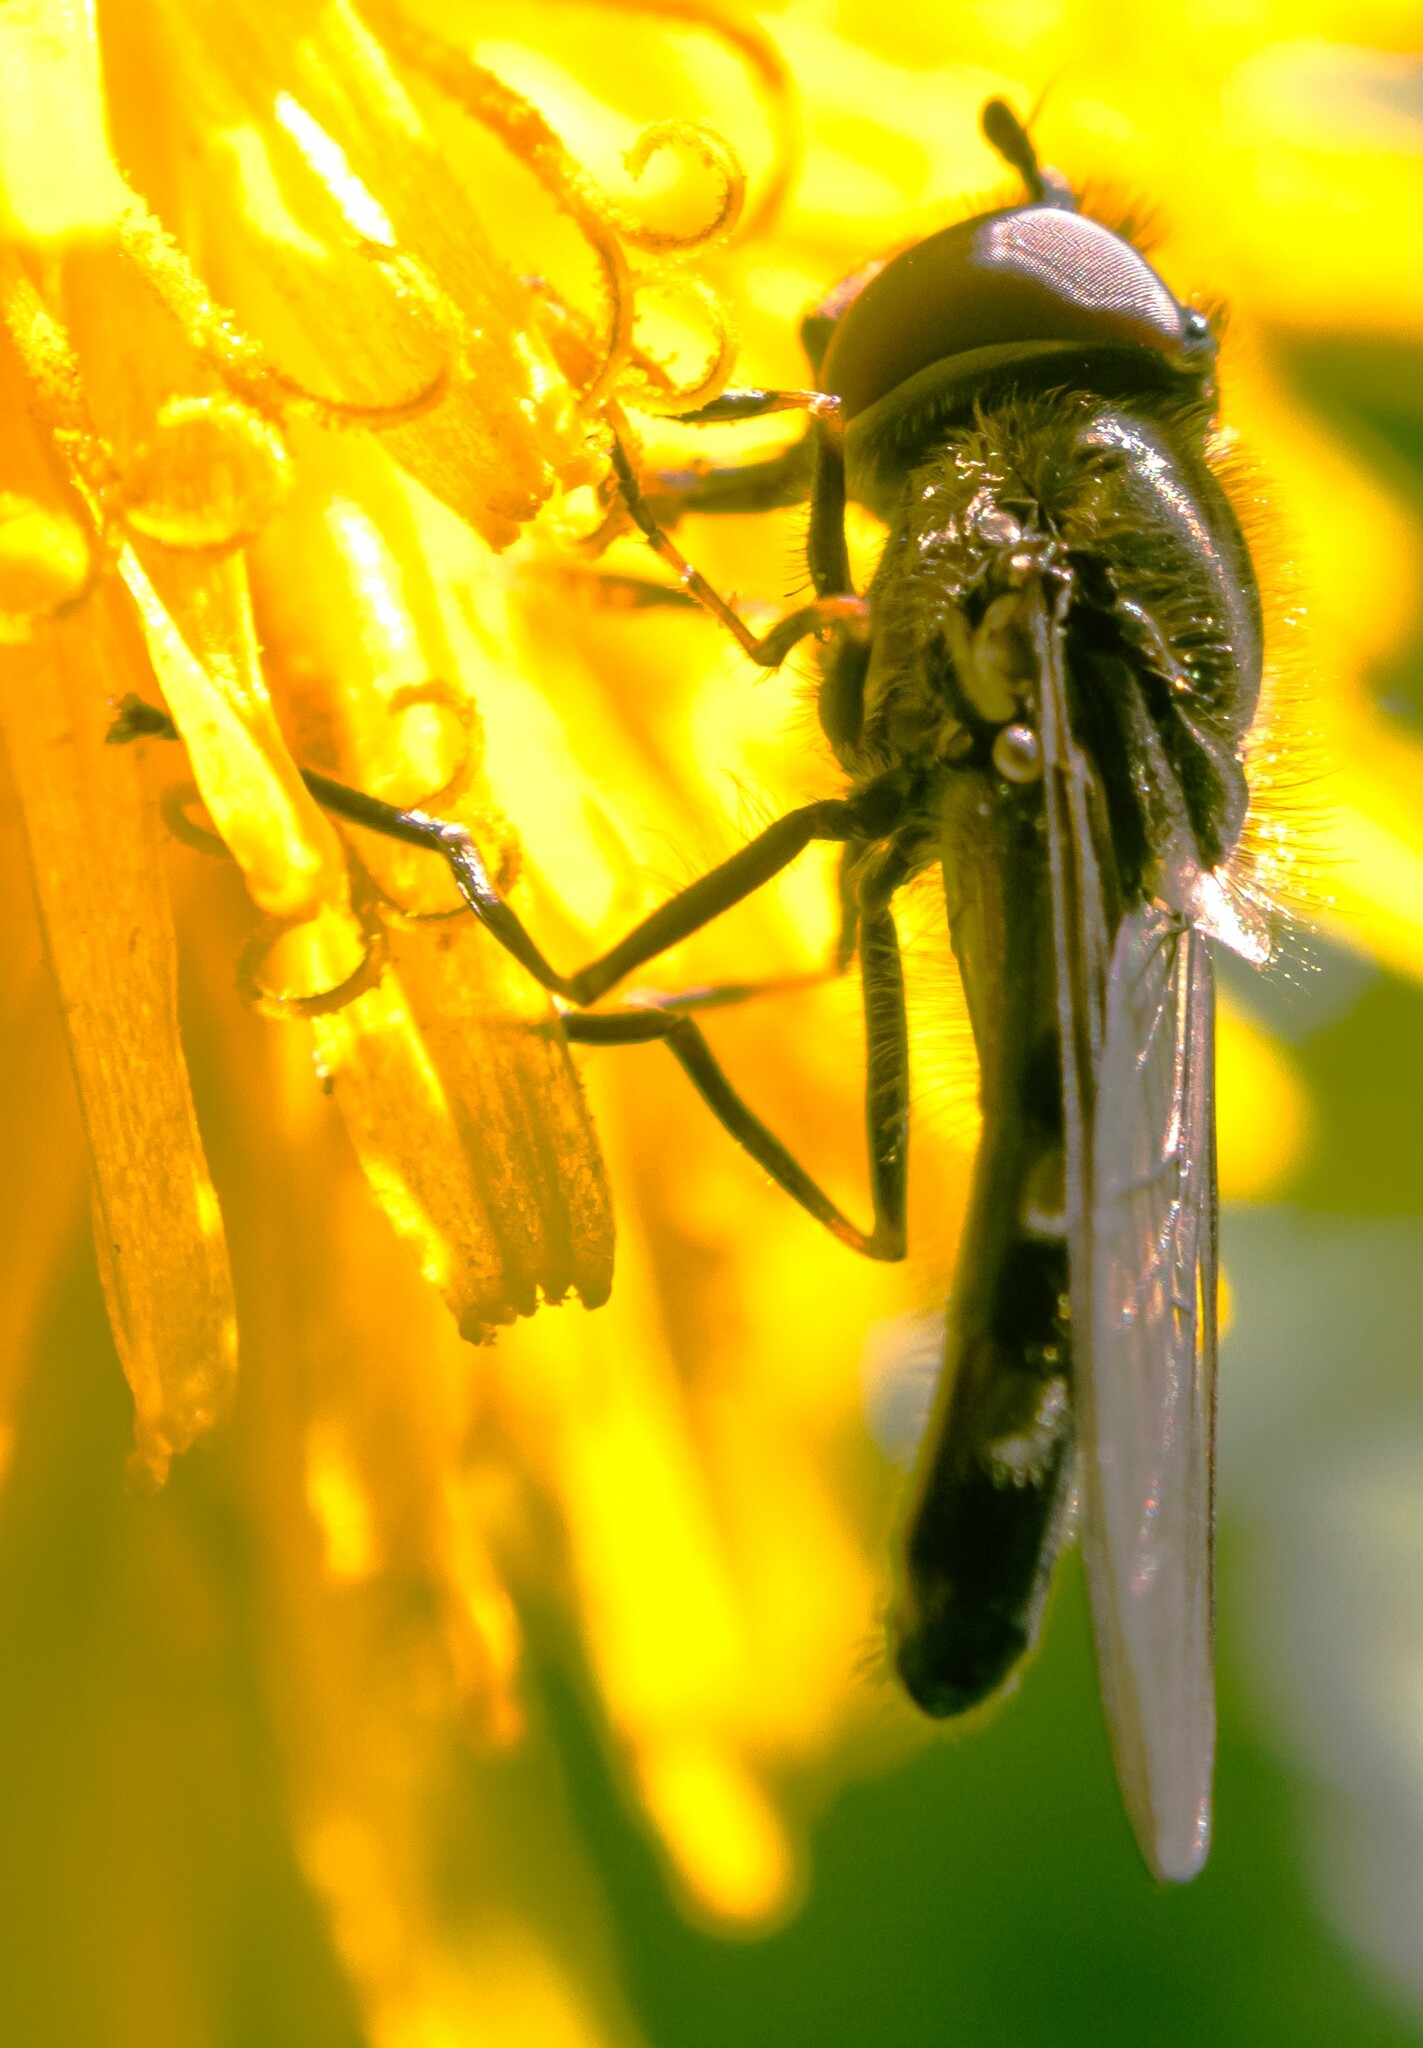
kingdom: Animalia
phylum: Arthropoda
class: Insecta
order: Diptera
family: Syrphidae
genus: Platycheirus
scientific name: Platycheirus
